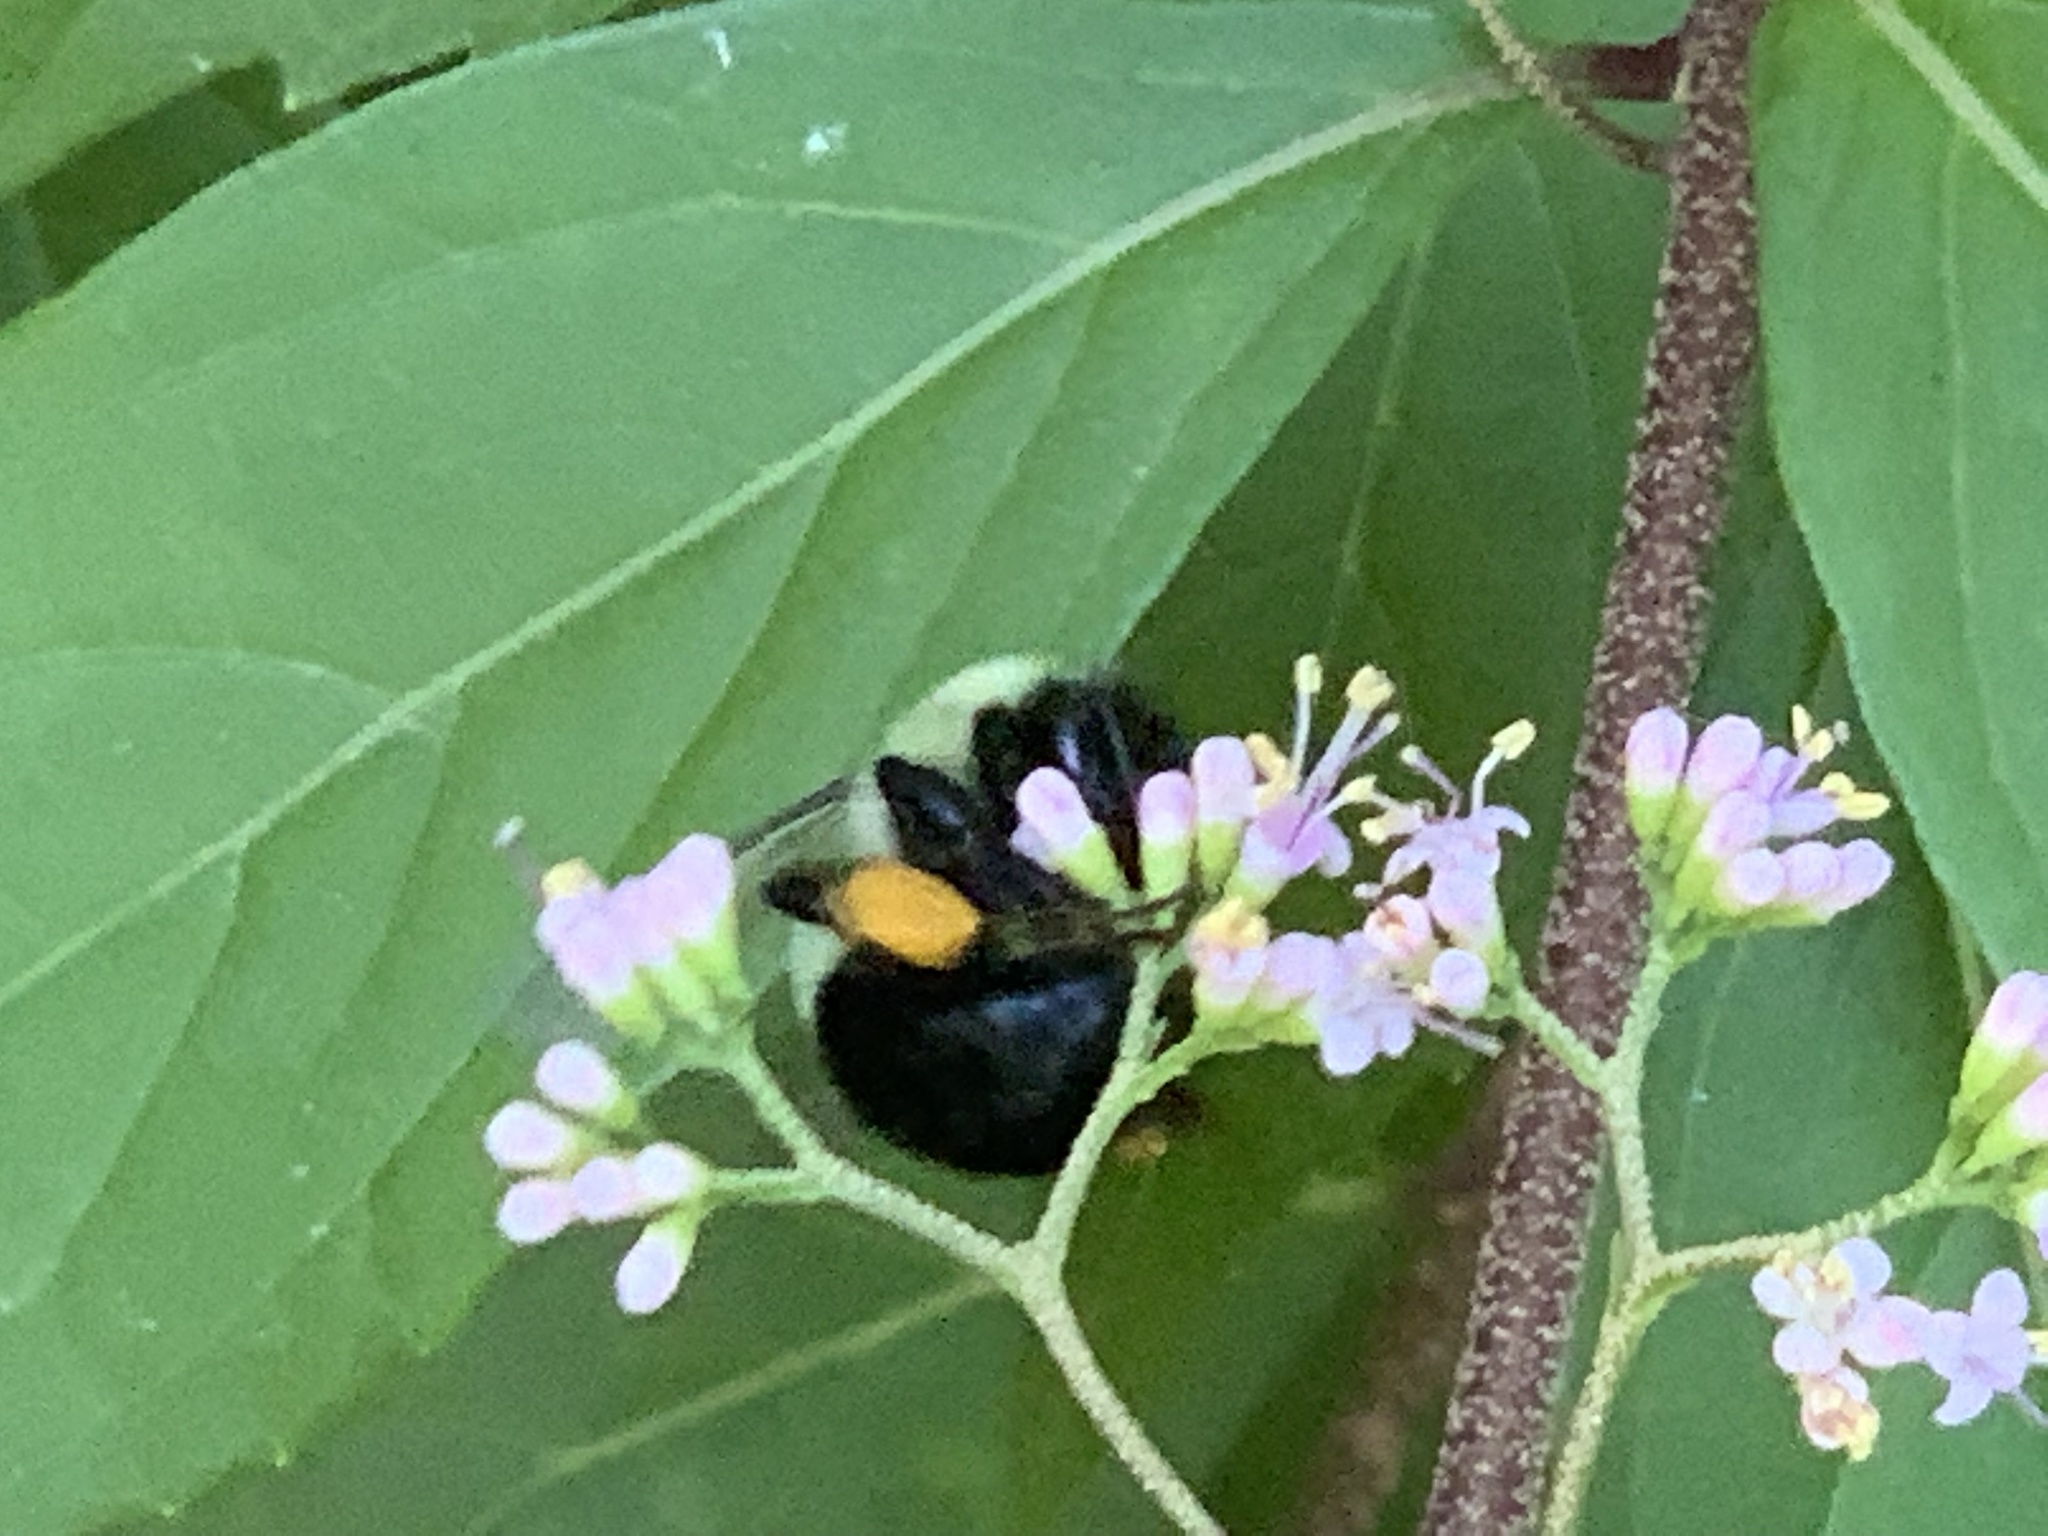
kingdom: Animalia
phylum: Arthropoda
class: Insecta
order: Hymenoptera
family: Apidae
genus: Bombus
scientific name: Bombus impatiens
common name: Common eastern bumble bee
